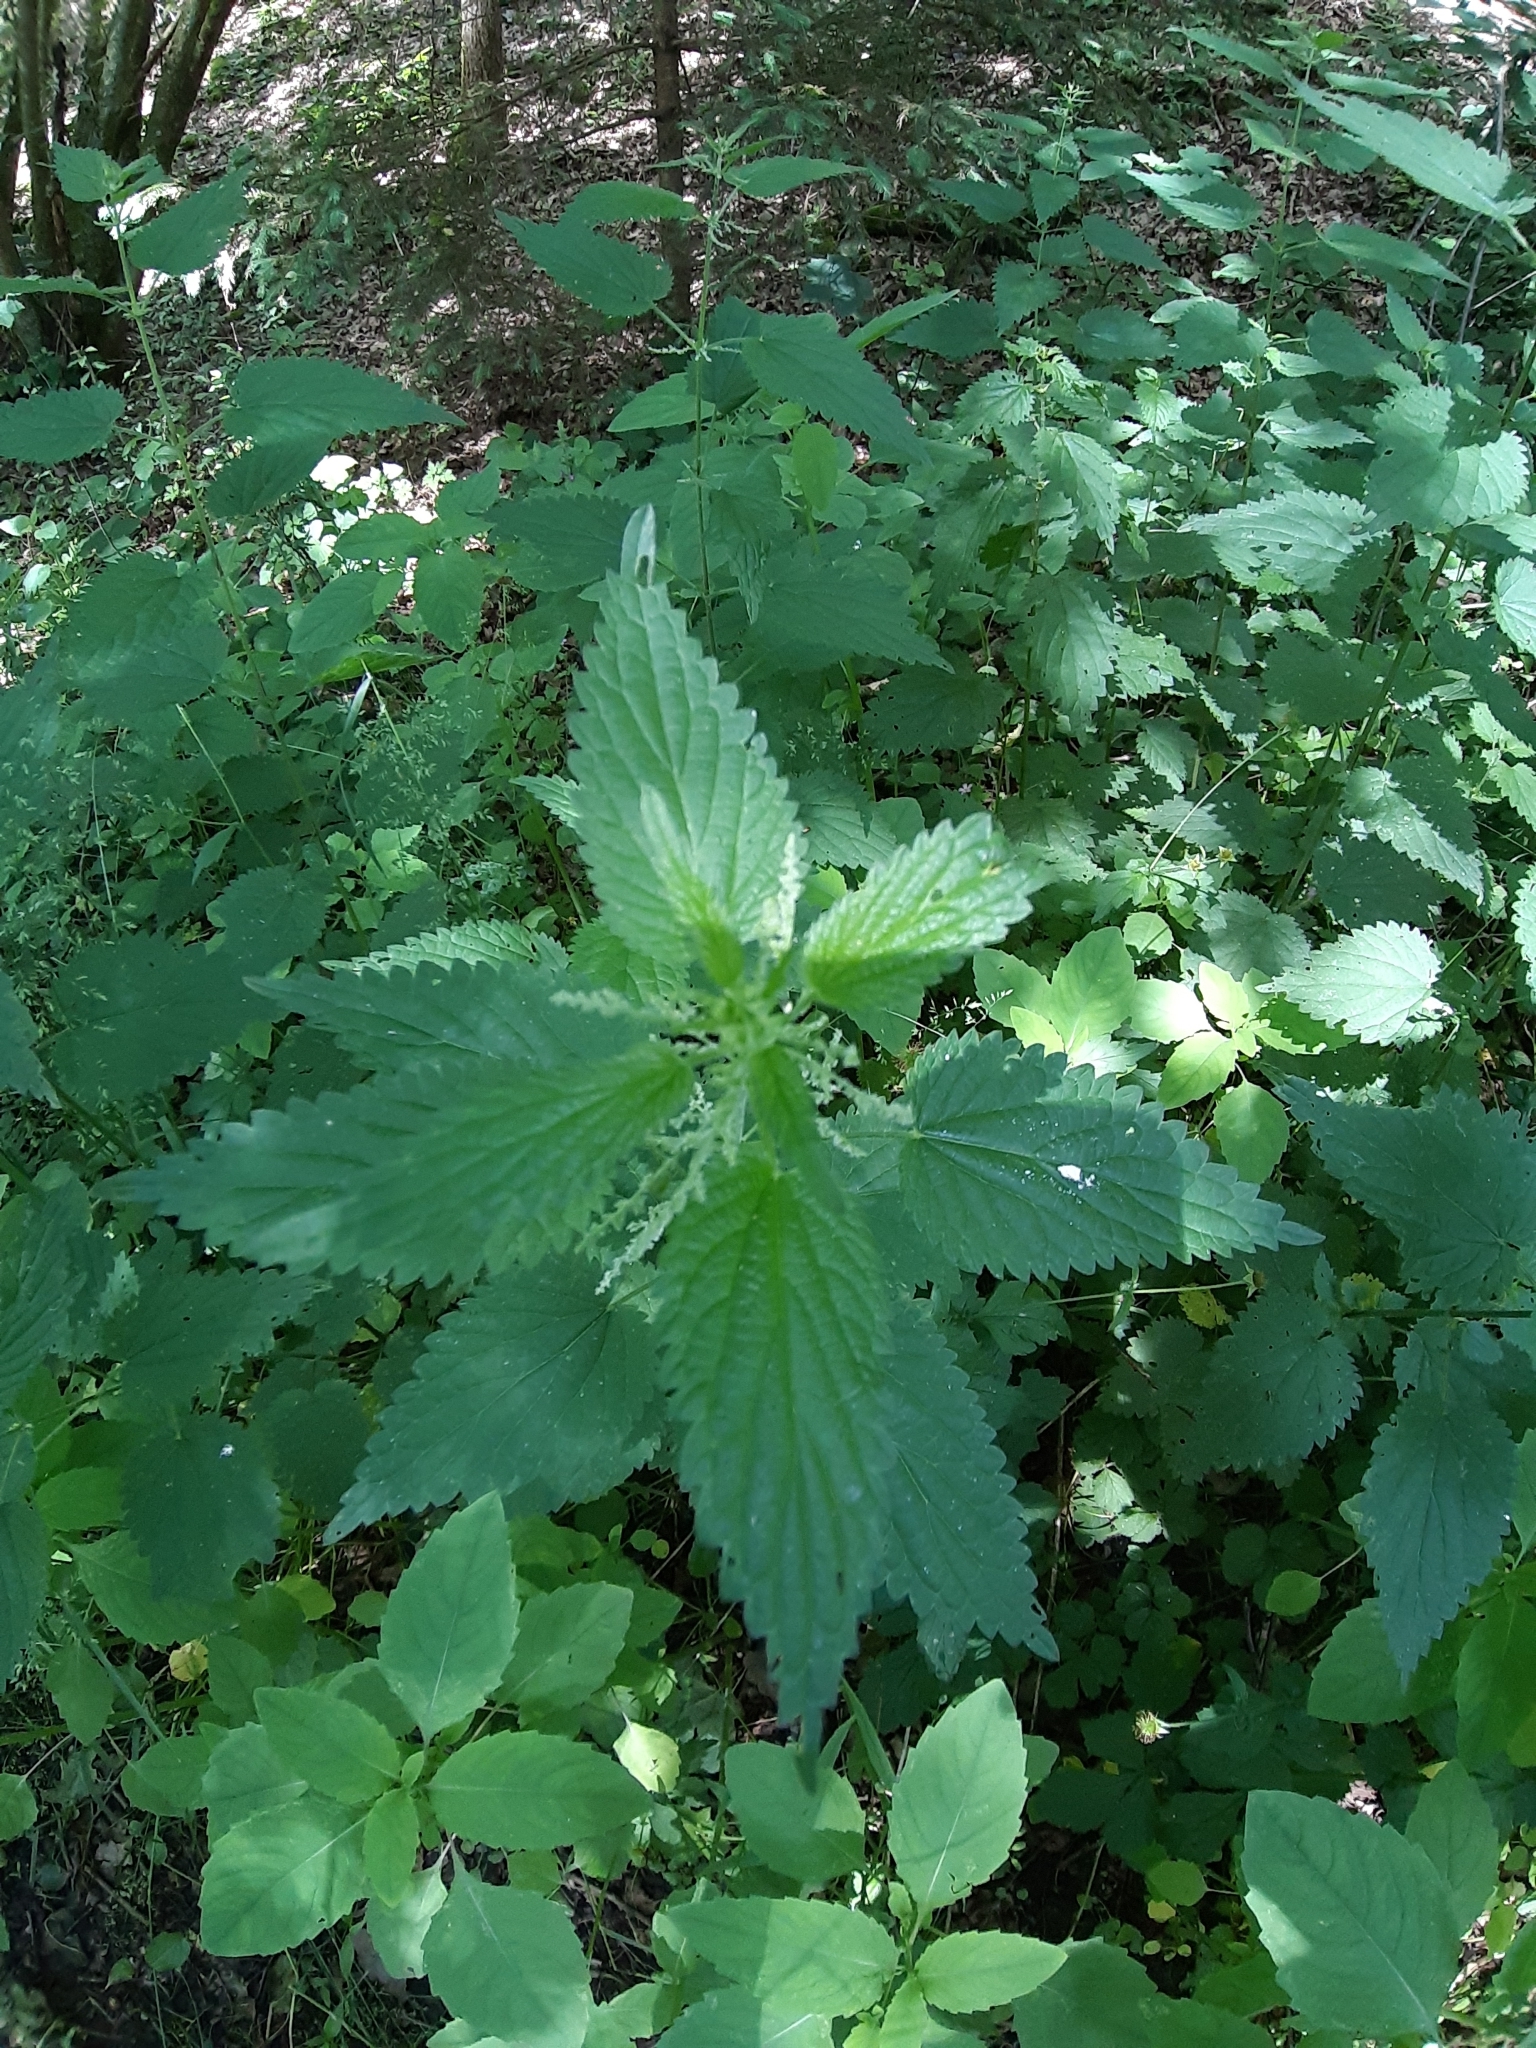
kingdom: Plantae
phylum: Tracheophyta
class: Magnoliopsida
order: Rosales
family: Urticaceae
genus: Urtica
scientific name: Urtica dioica
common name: Common nettle
